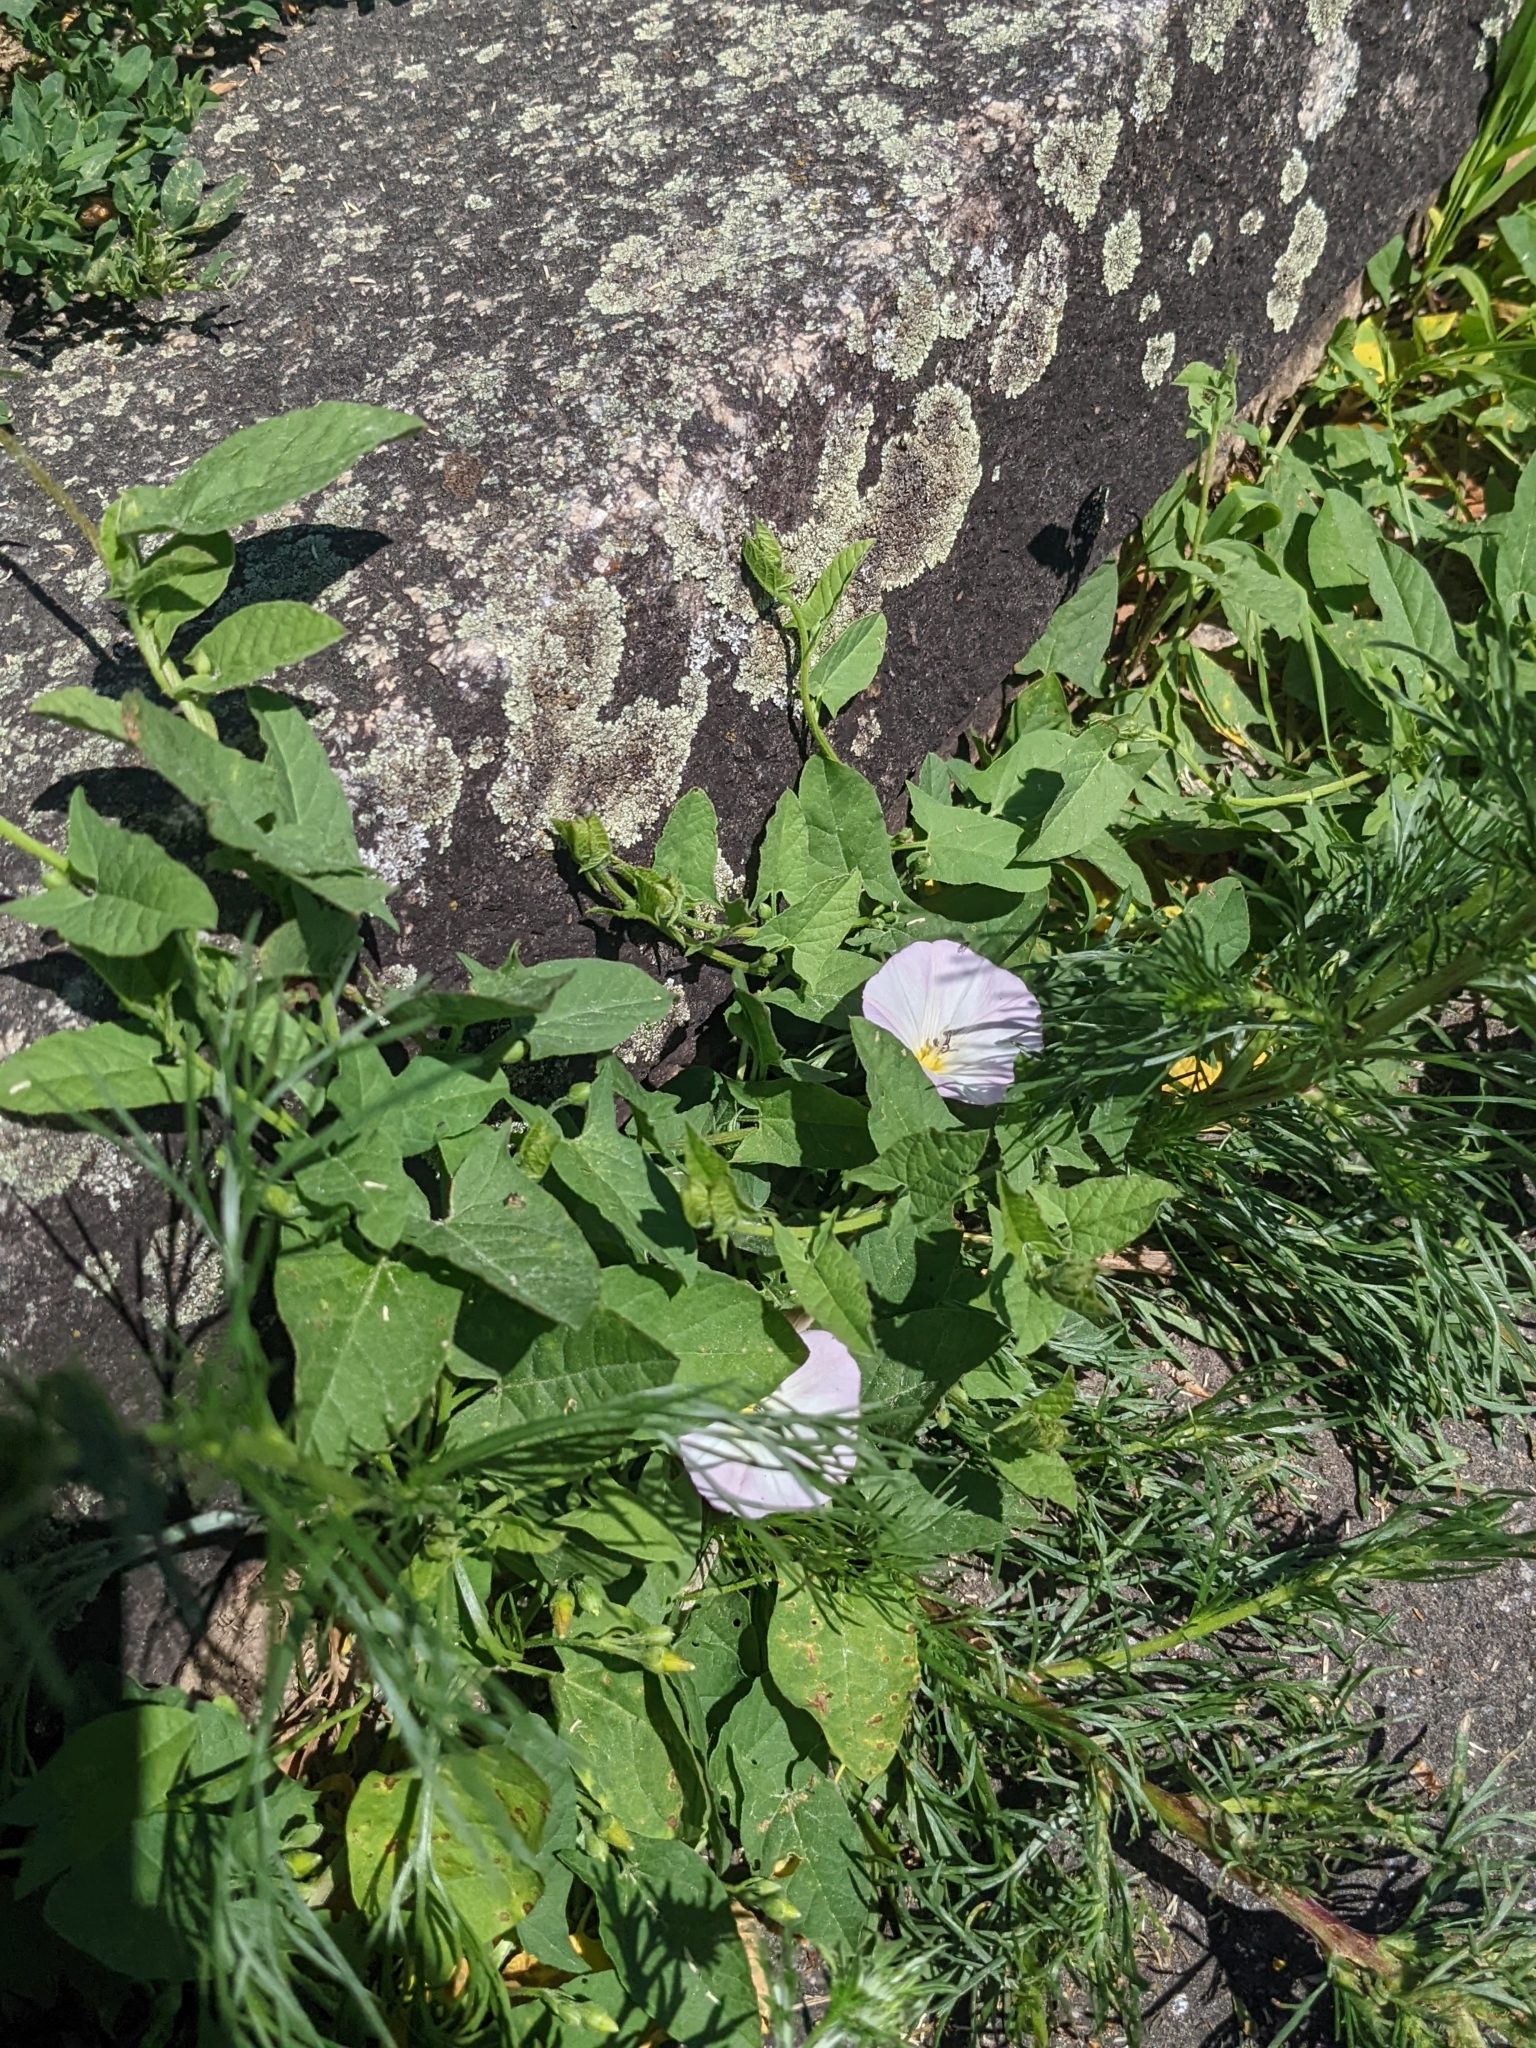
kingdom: Plantae
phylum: Tracheophyta
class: Magnoliopsida
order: Solanales
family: Convolvulaceae
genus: Convolvulus
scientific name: Convolvulus arvensis
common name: Field bindweed
